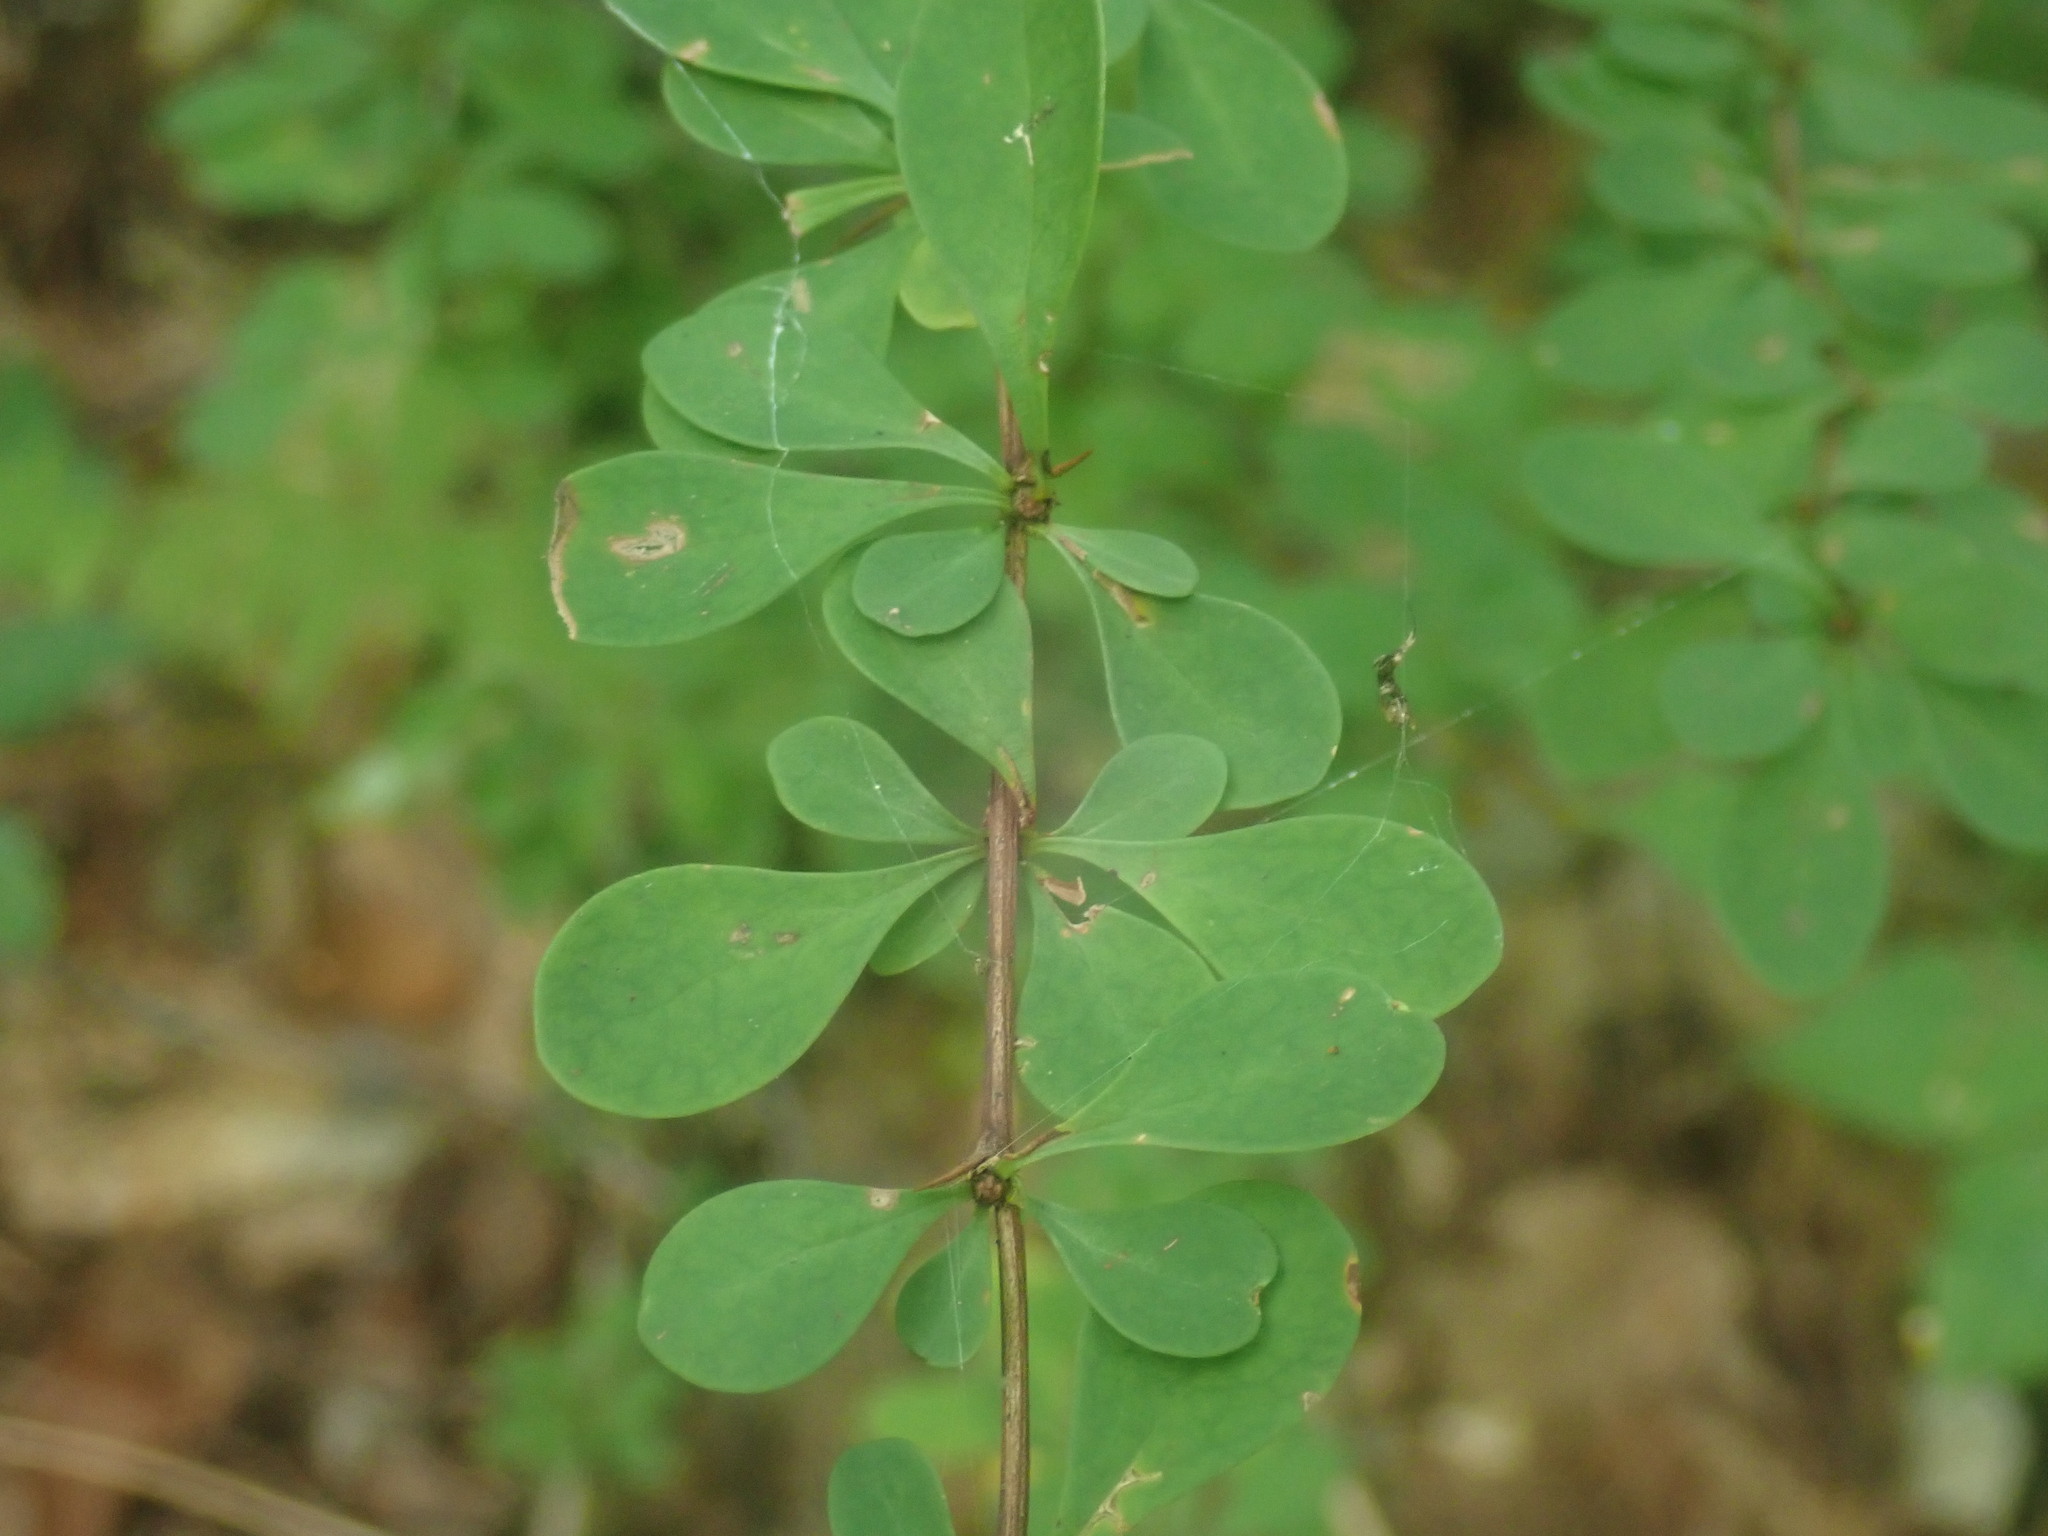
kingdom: Plantae
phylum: Tracheophyta
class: Magnoliopsida
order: Ranunculales
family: Berberidaceae
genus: Berberis
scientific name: Berberis thunbergii
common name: Japanese barberry
